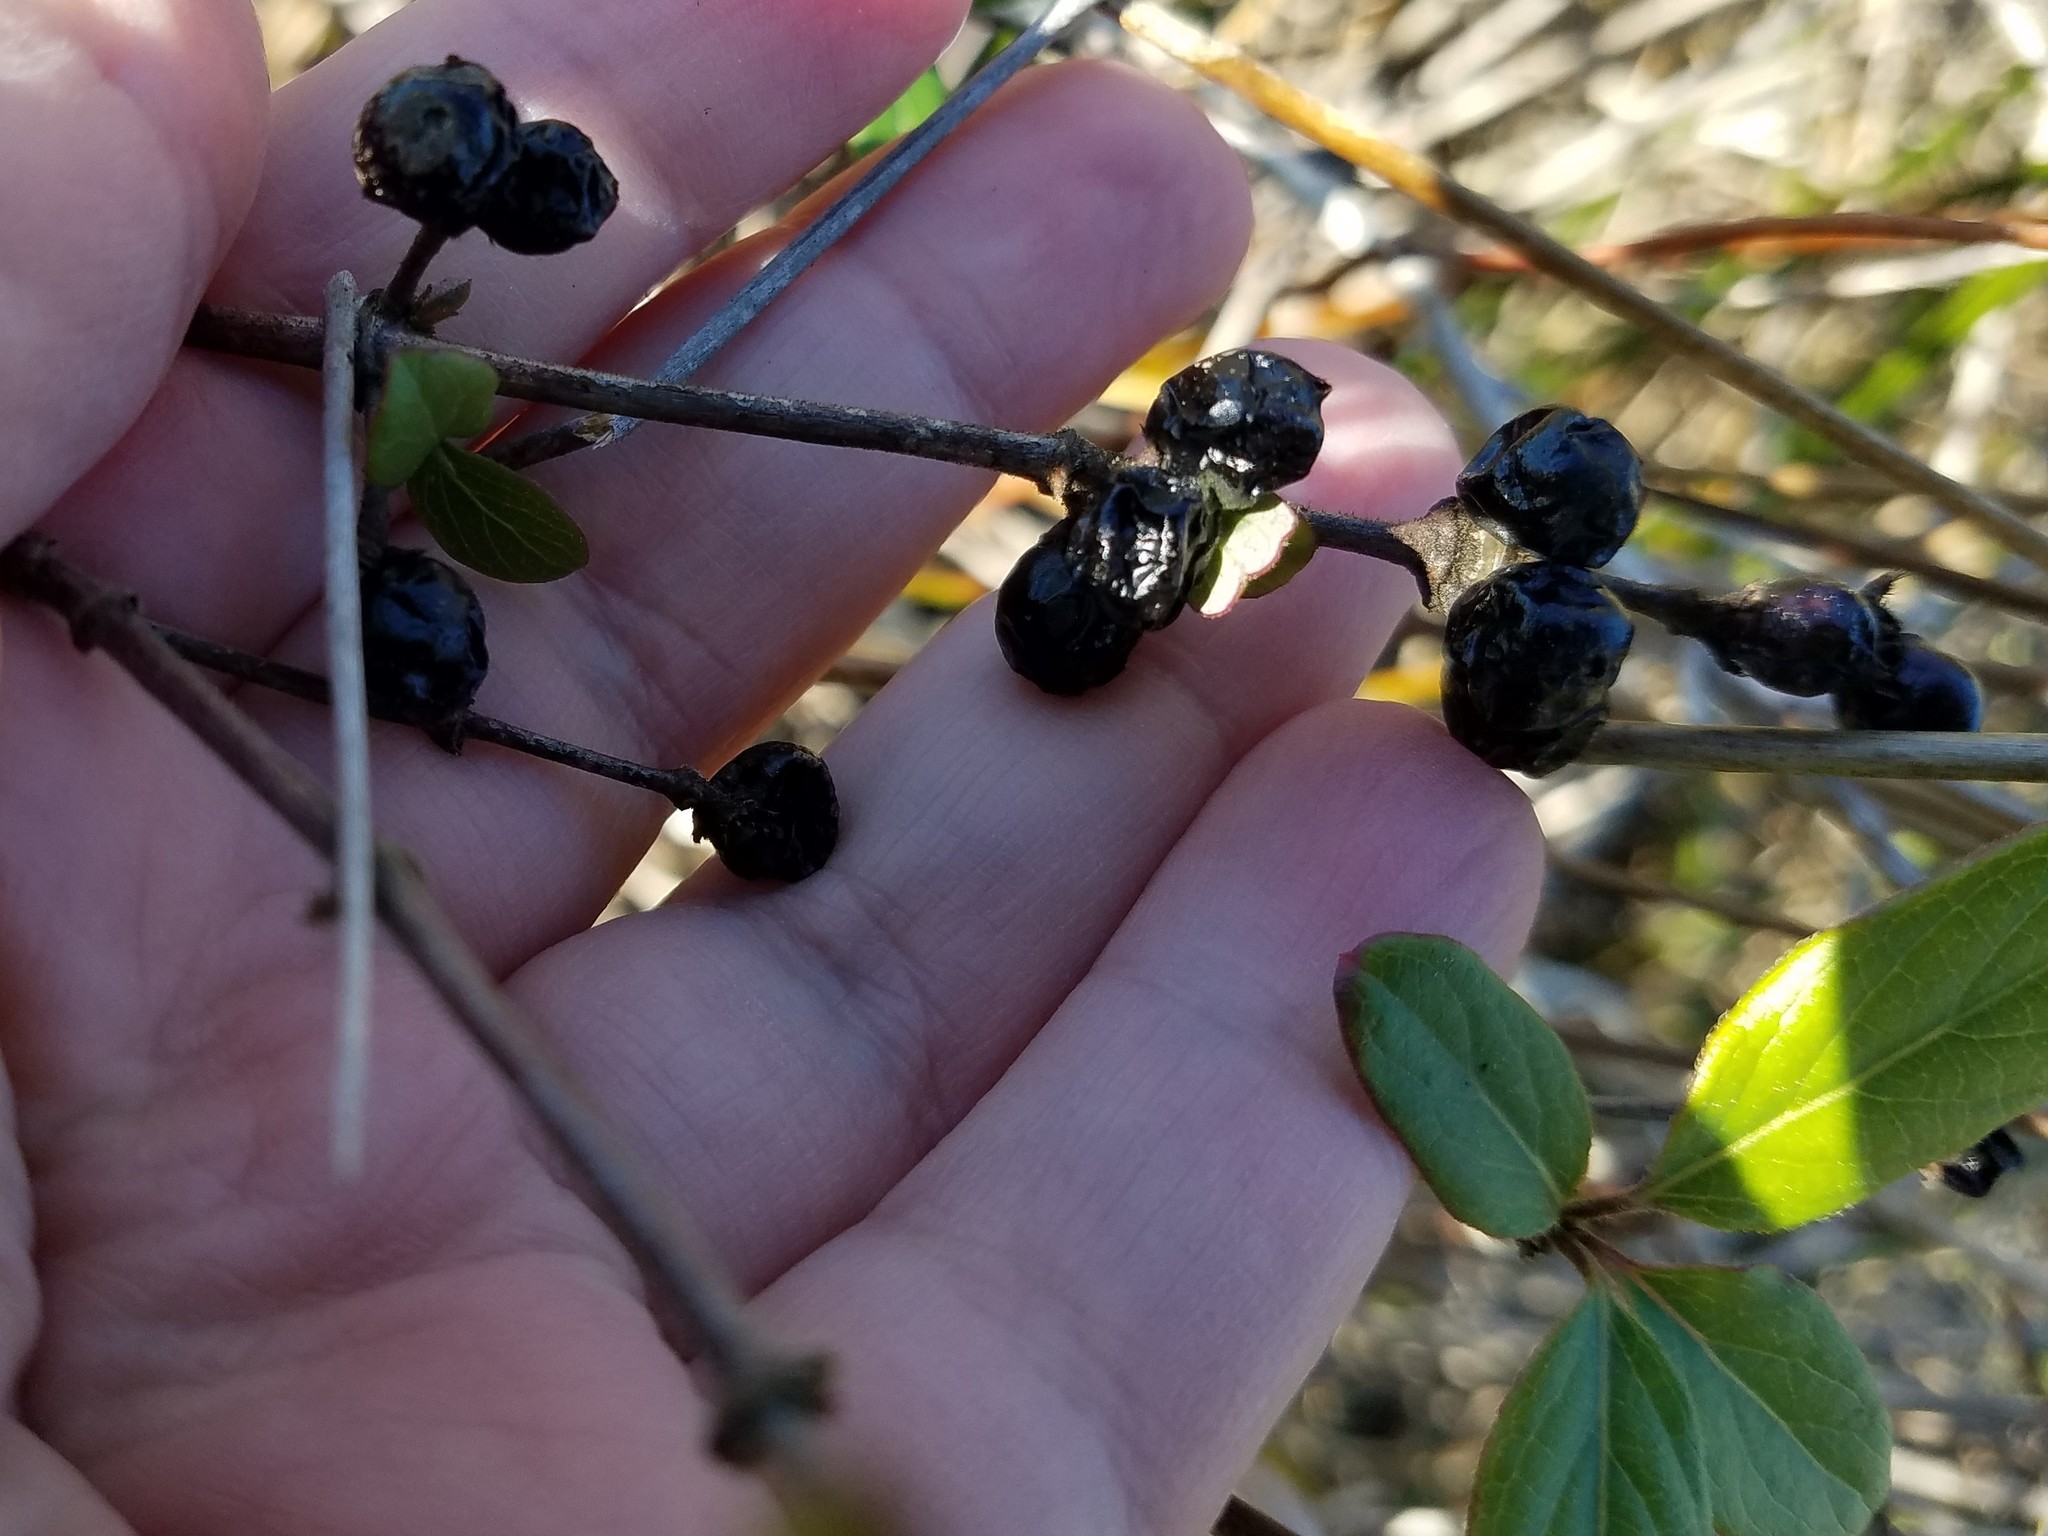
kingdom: Plantae
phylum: Tracheophyta
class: Magnoliopsida
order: Dipsacales
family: Caprifoliaceae
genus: Lonicera
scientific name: Lonicera japonica
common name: Japanese honeysuckle
